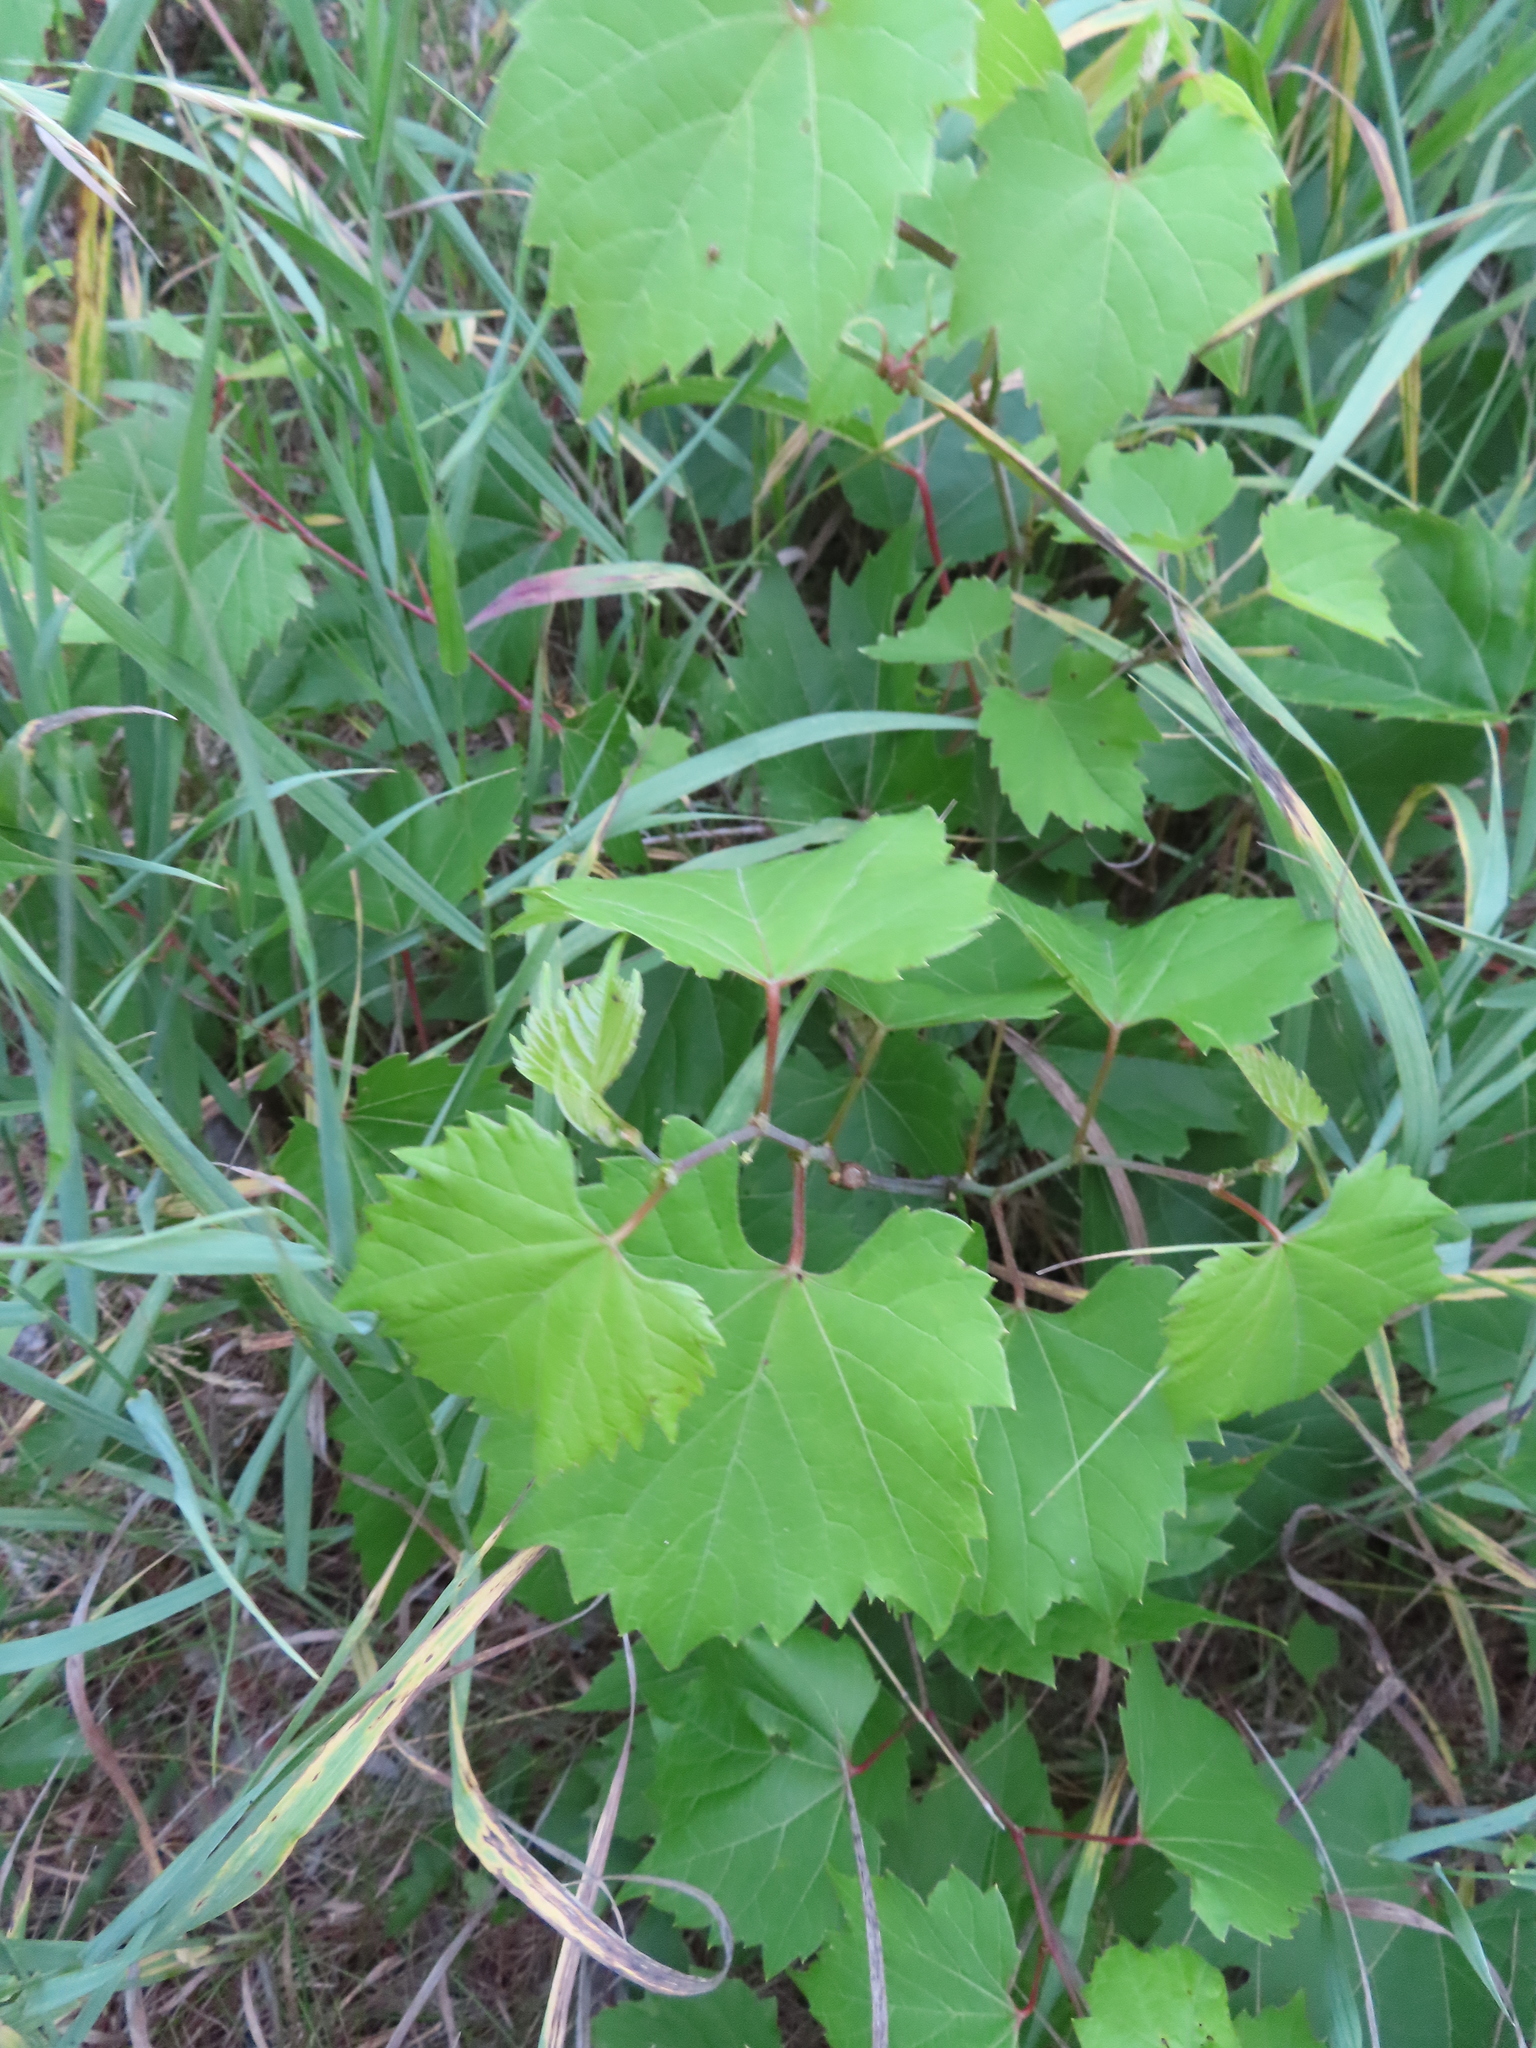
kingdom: Plantae
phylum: Tracheophyta
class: Magnoliopsida
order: Vitales
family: Vitaceae
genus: Vitis
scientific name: Vitis riparia
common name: Frost grape
